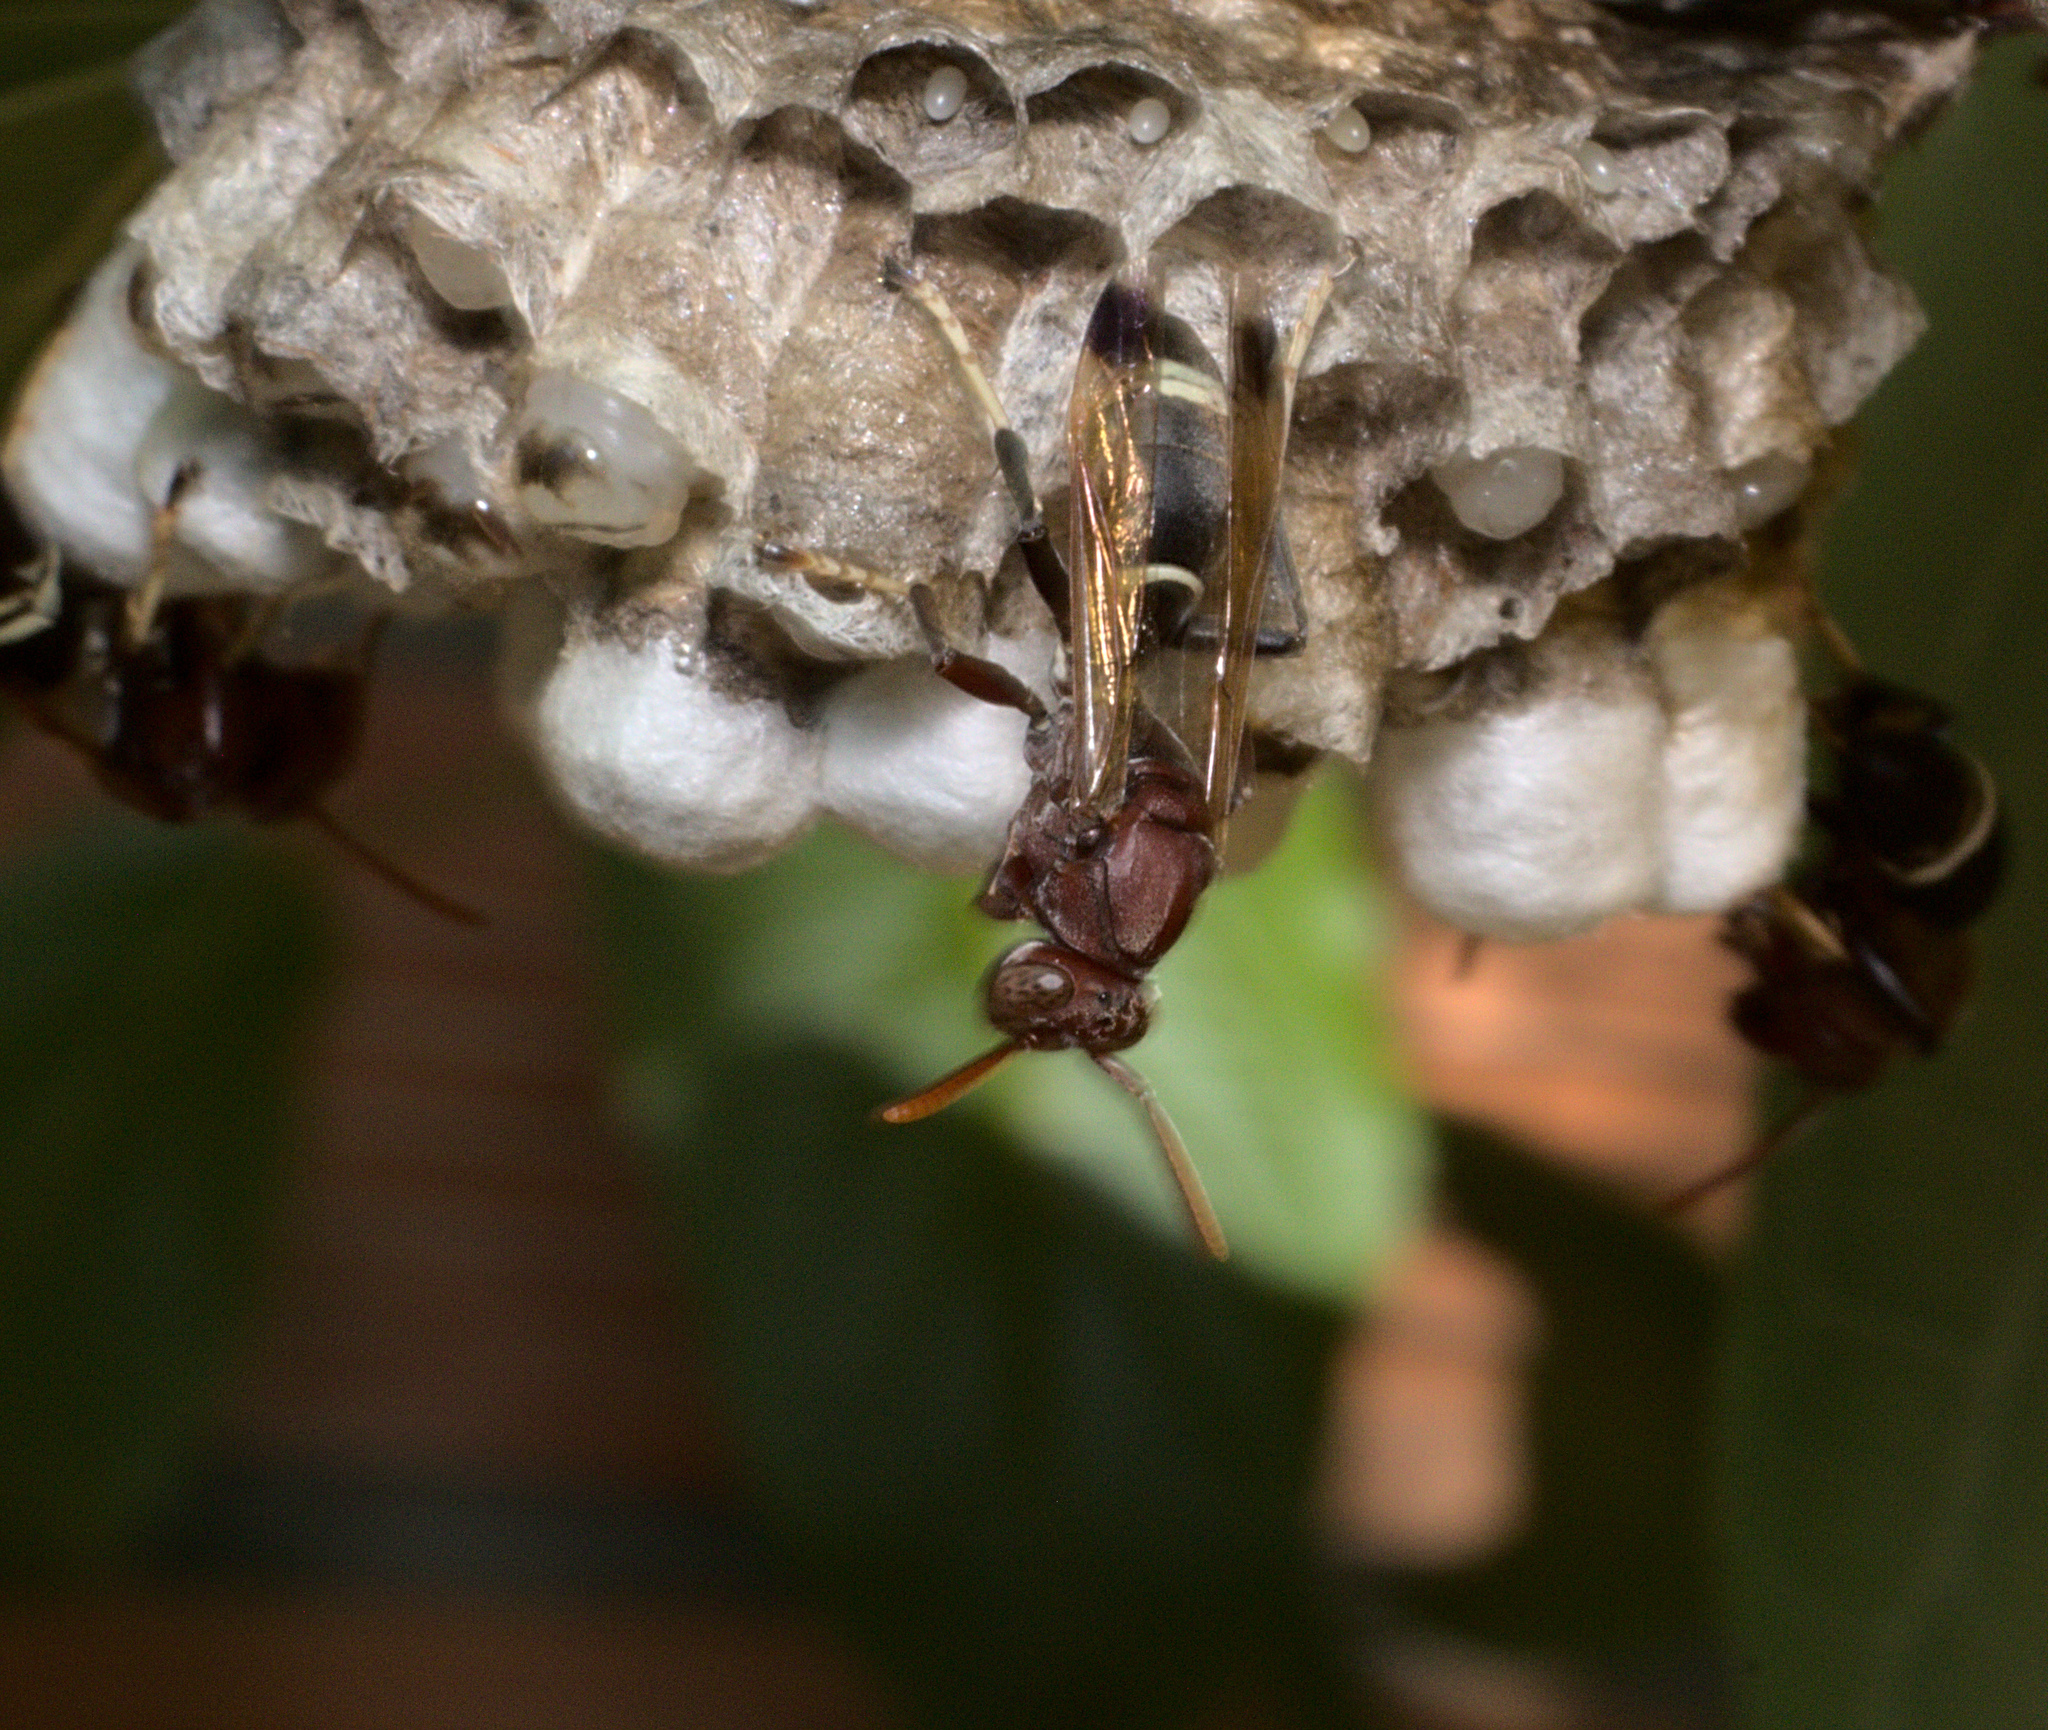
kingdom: Animalia
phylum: Arthropoda
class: Insecta
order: Hymenoptera
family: Eumenidae
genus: Polistes
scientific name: Polistes brunus
